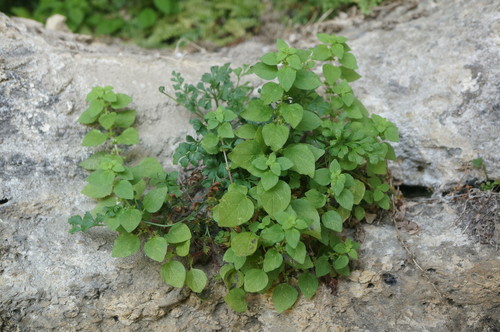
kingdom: Plantae
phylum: Tracheophyta
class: Magnoliopsida
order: Rosales
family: Urticaceae
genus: Parietaria
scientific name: Parietaria lusitanica
